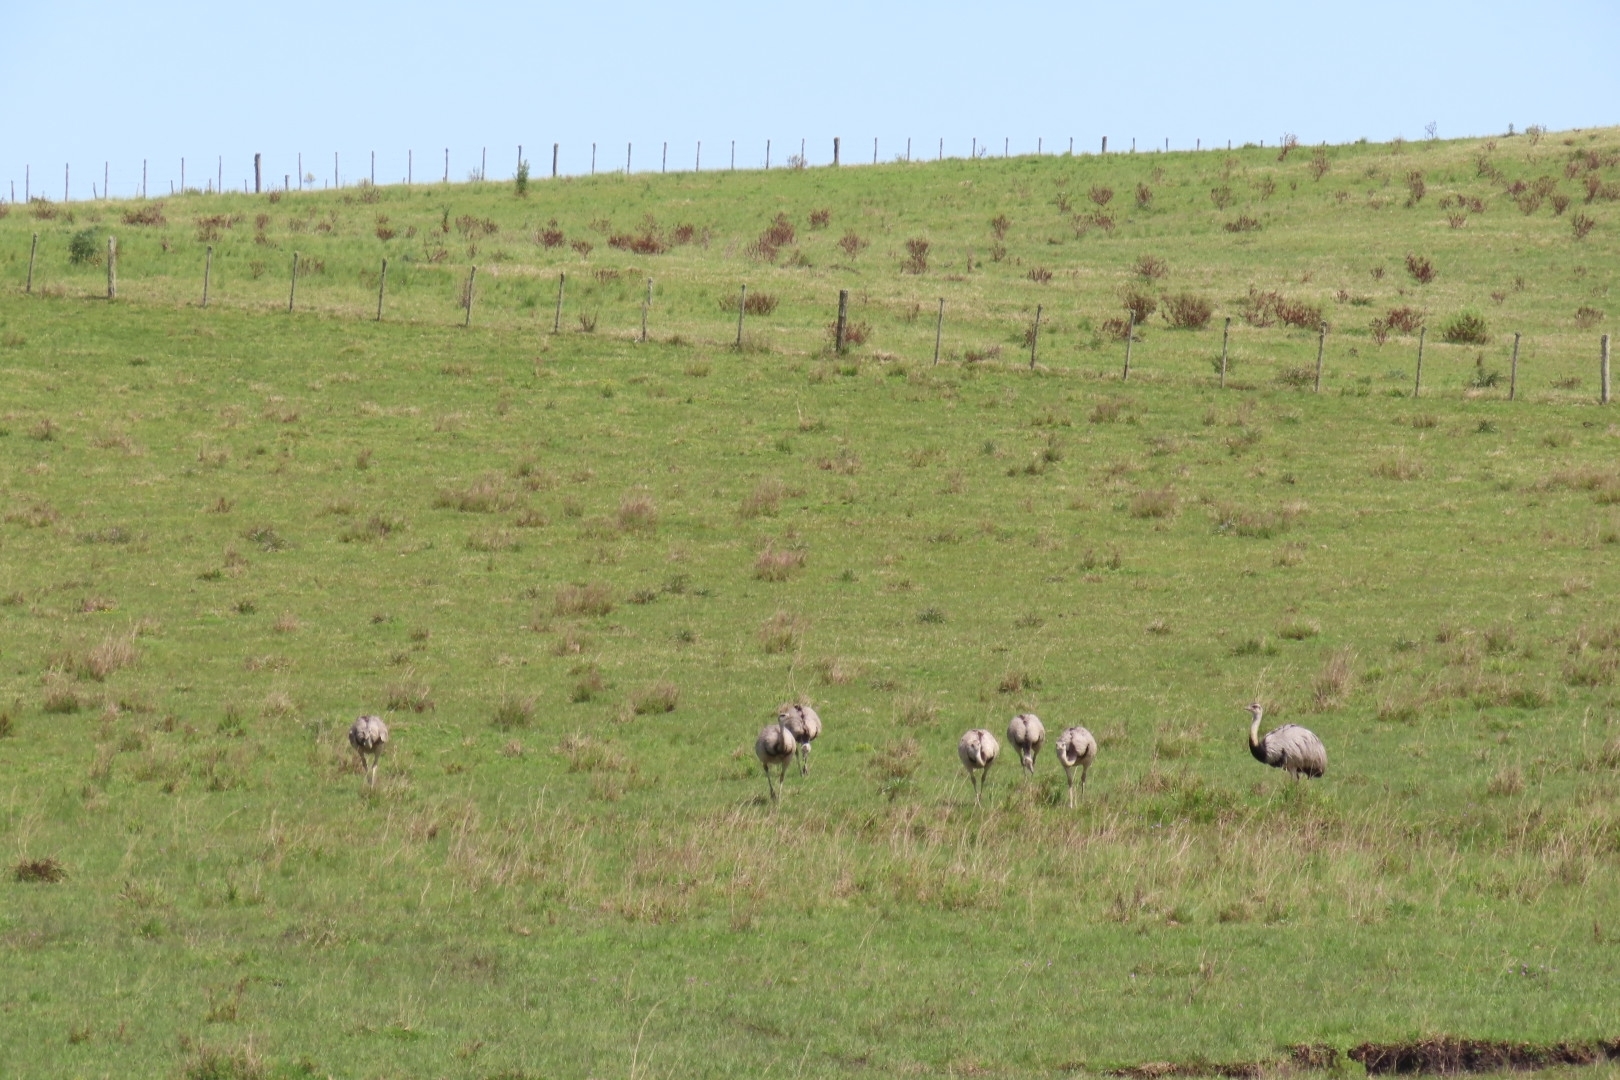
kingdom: Animalia
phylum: Chordata
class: Aves
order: Rheiformes
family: Rheidae
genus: Rhea
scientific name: Rhea americana
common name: Greater rhea
